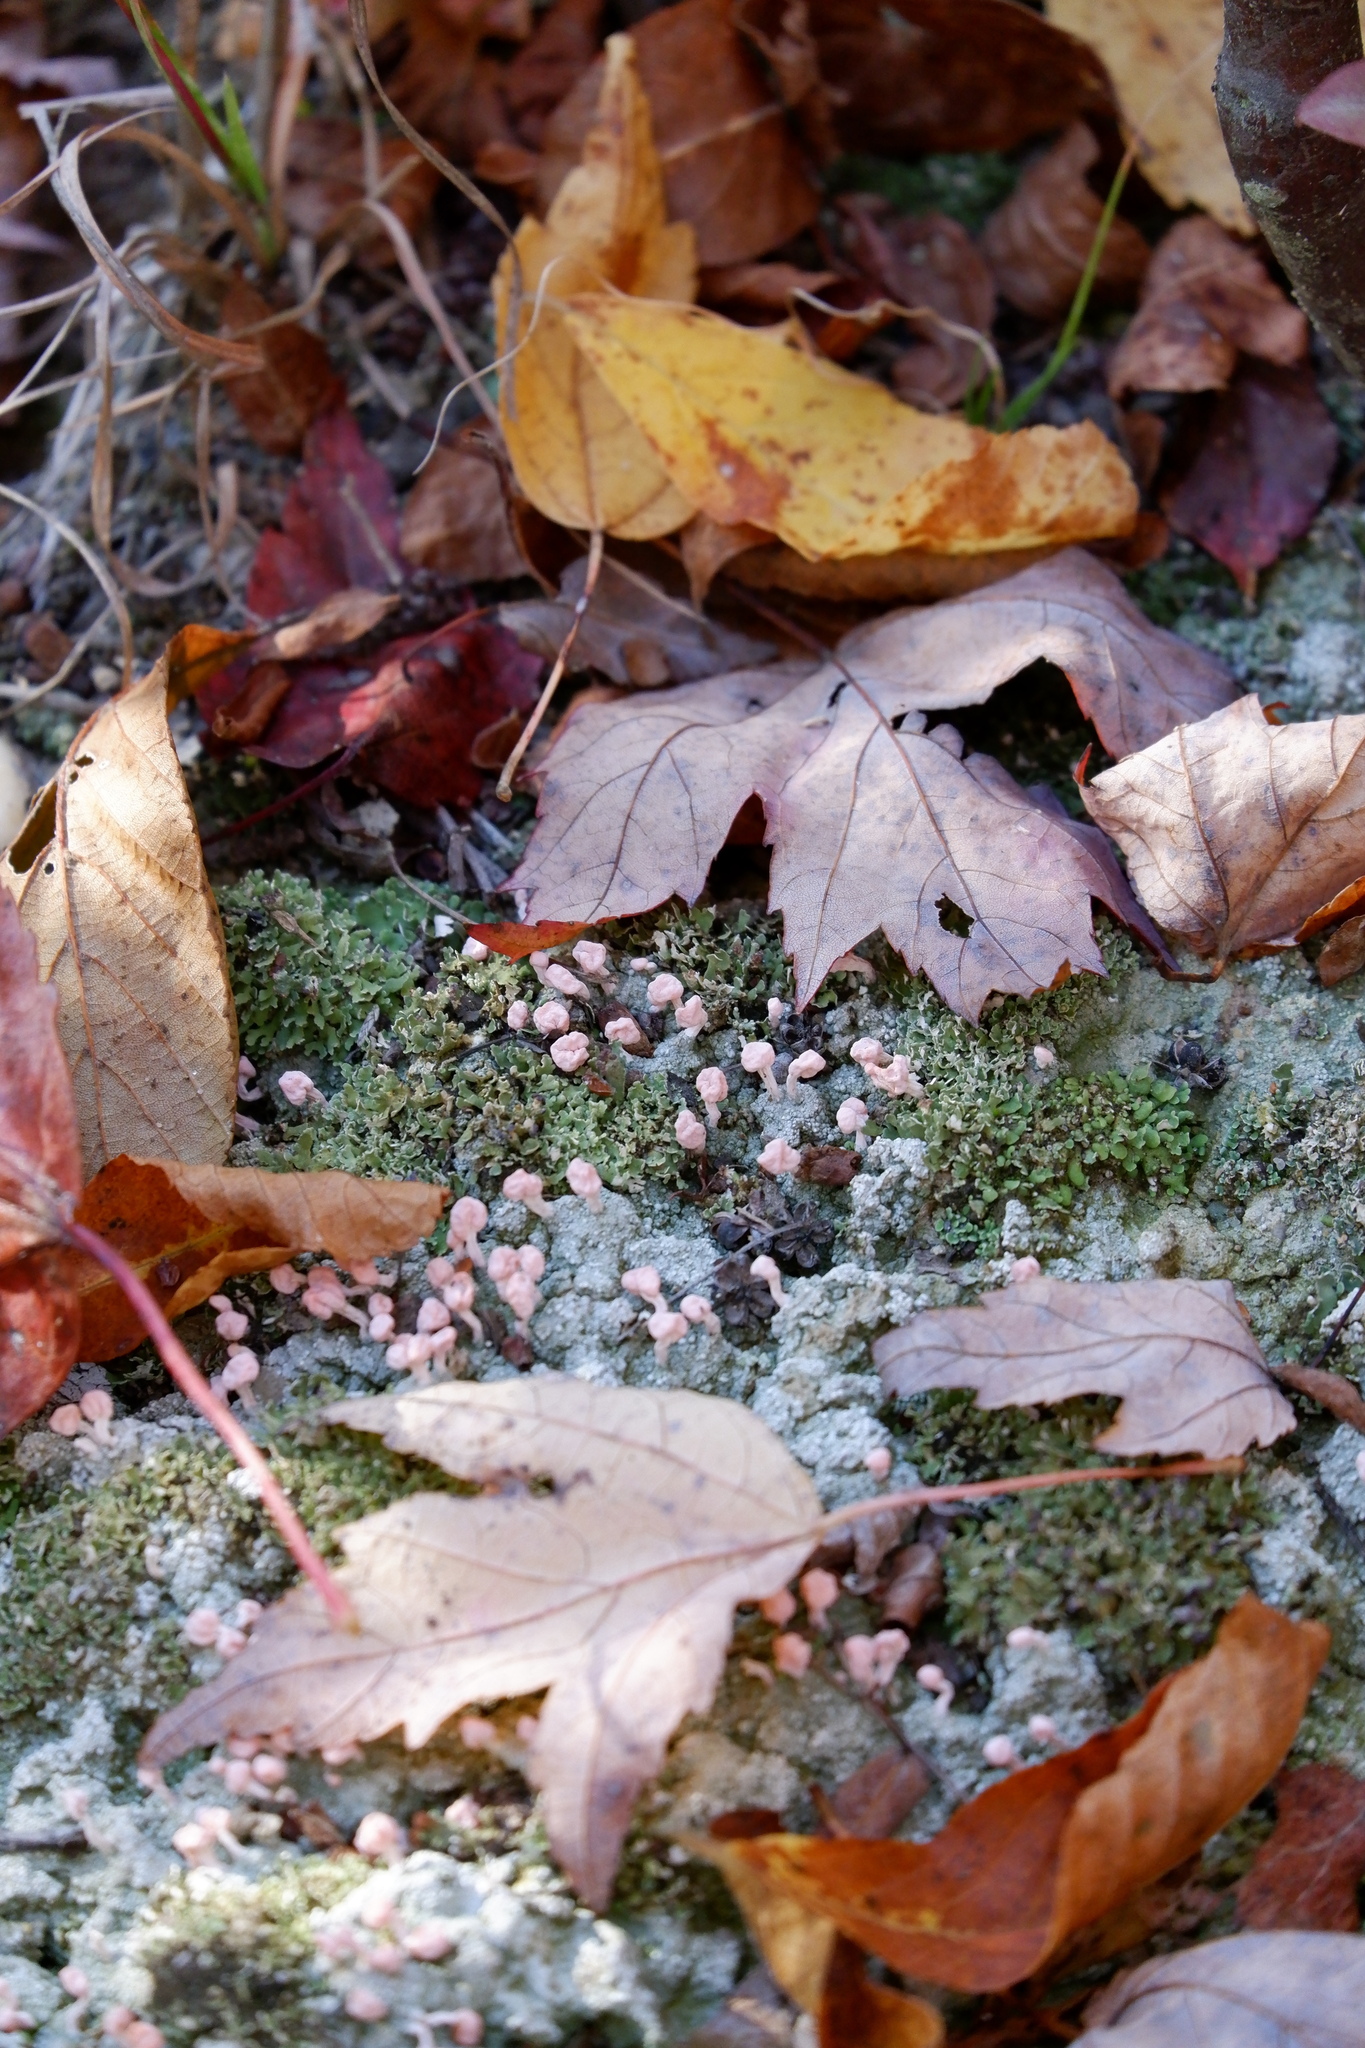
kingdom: Fungi
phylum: Ascomycota
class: Lecanoromycetes
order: Pertusariales
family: Icmadophilaceae
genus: Dibaeis
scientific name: Dibaeis baeomyces
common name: Pink earth lichen
